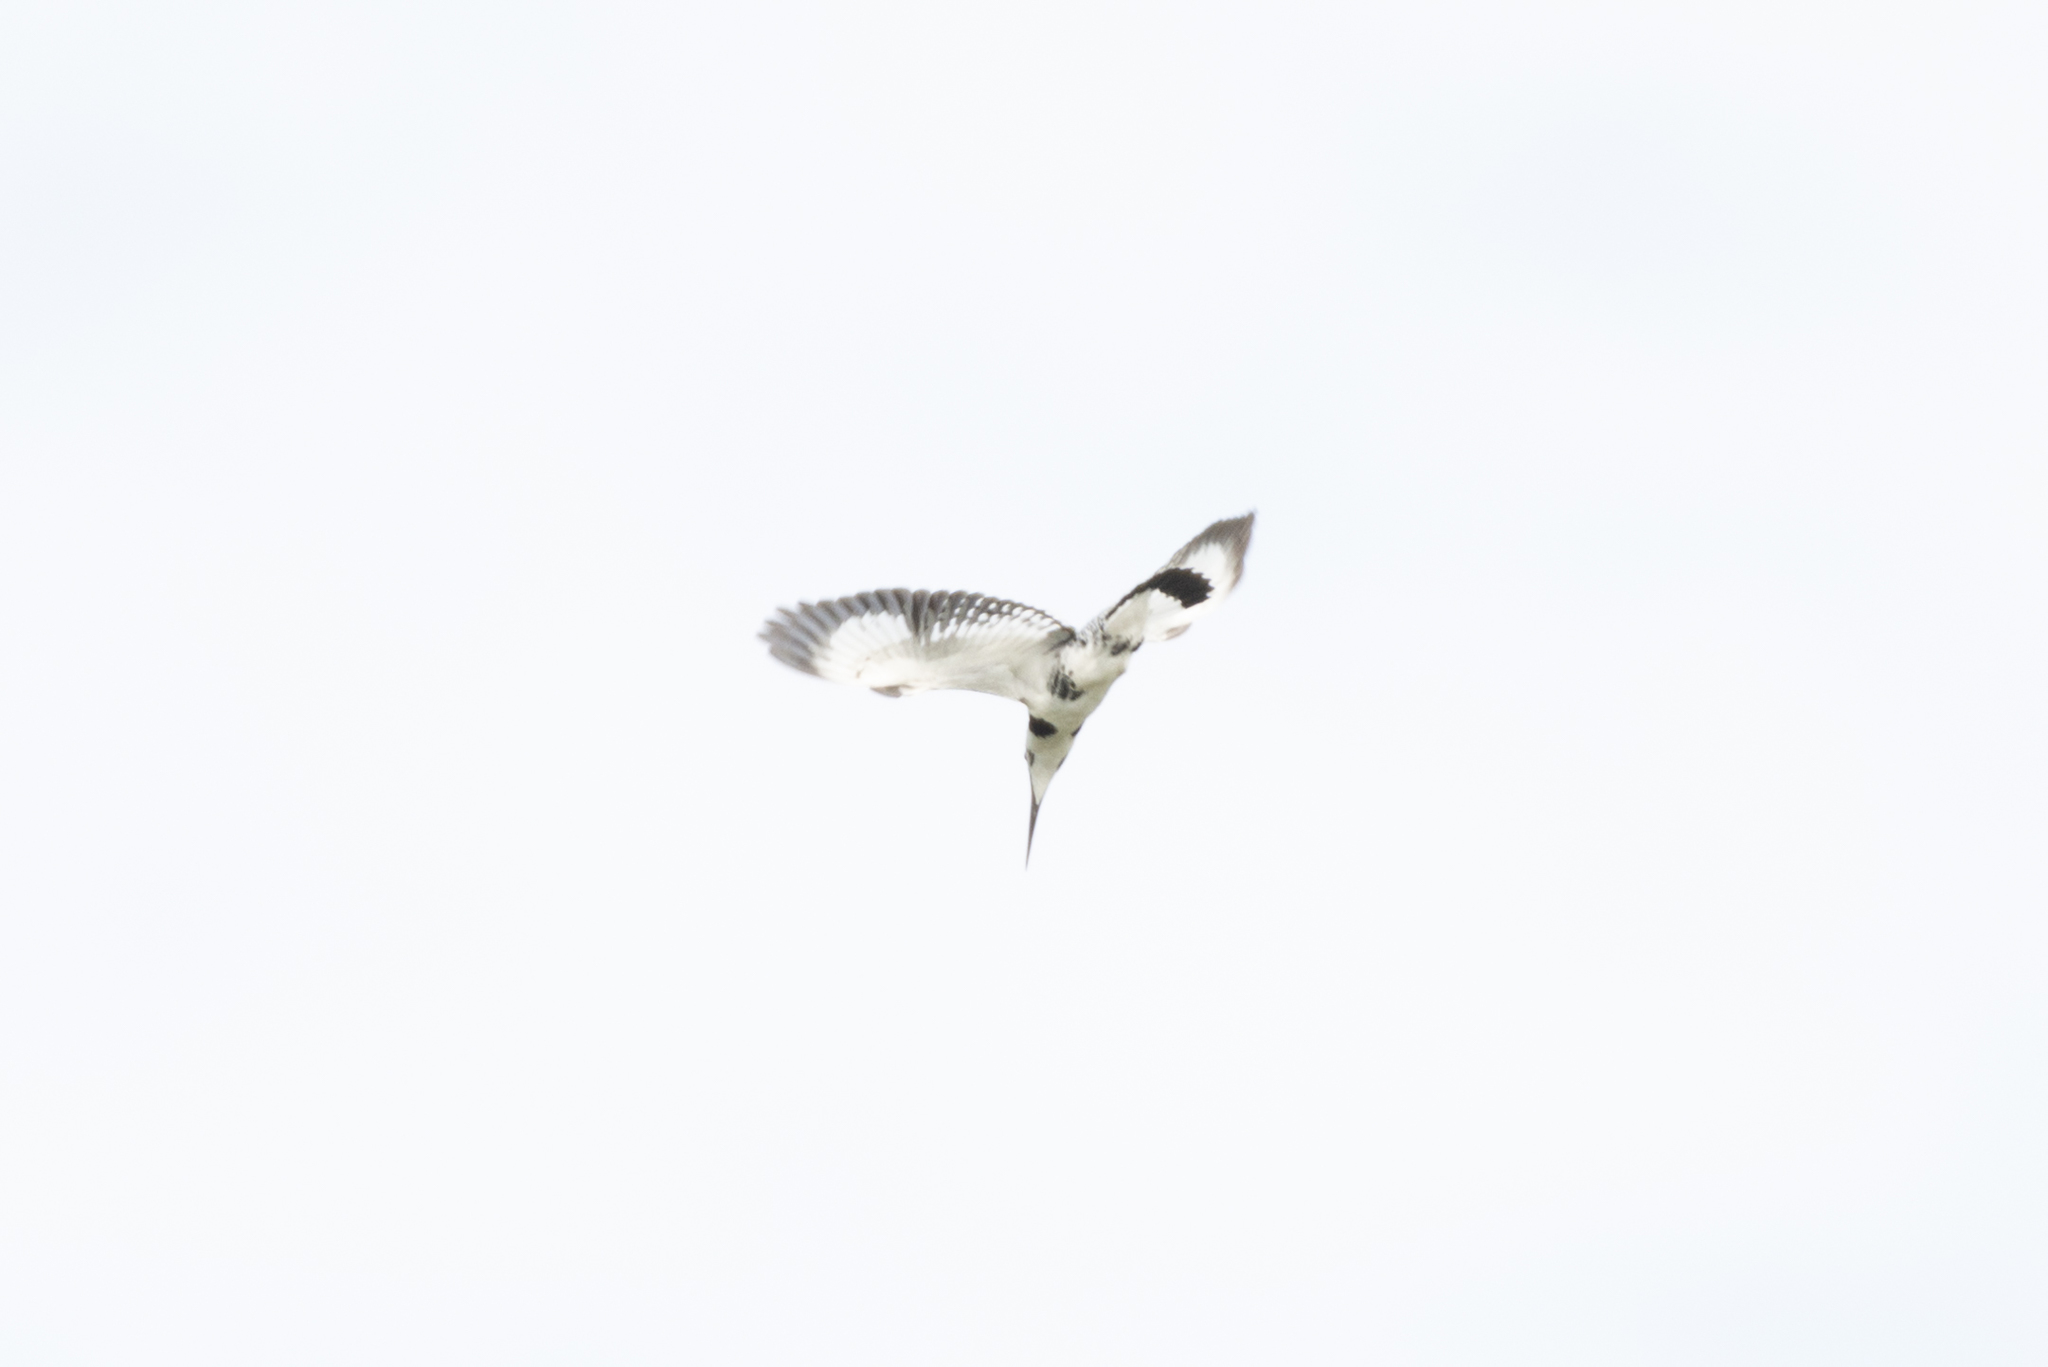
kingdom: Animalia
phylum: Chordata
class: Aves
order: Coraciiformes
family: Alcedinidae
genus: Ceryle
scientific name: Ceryle rudis
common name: Pied kingfisher
